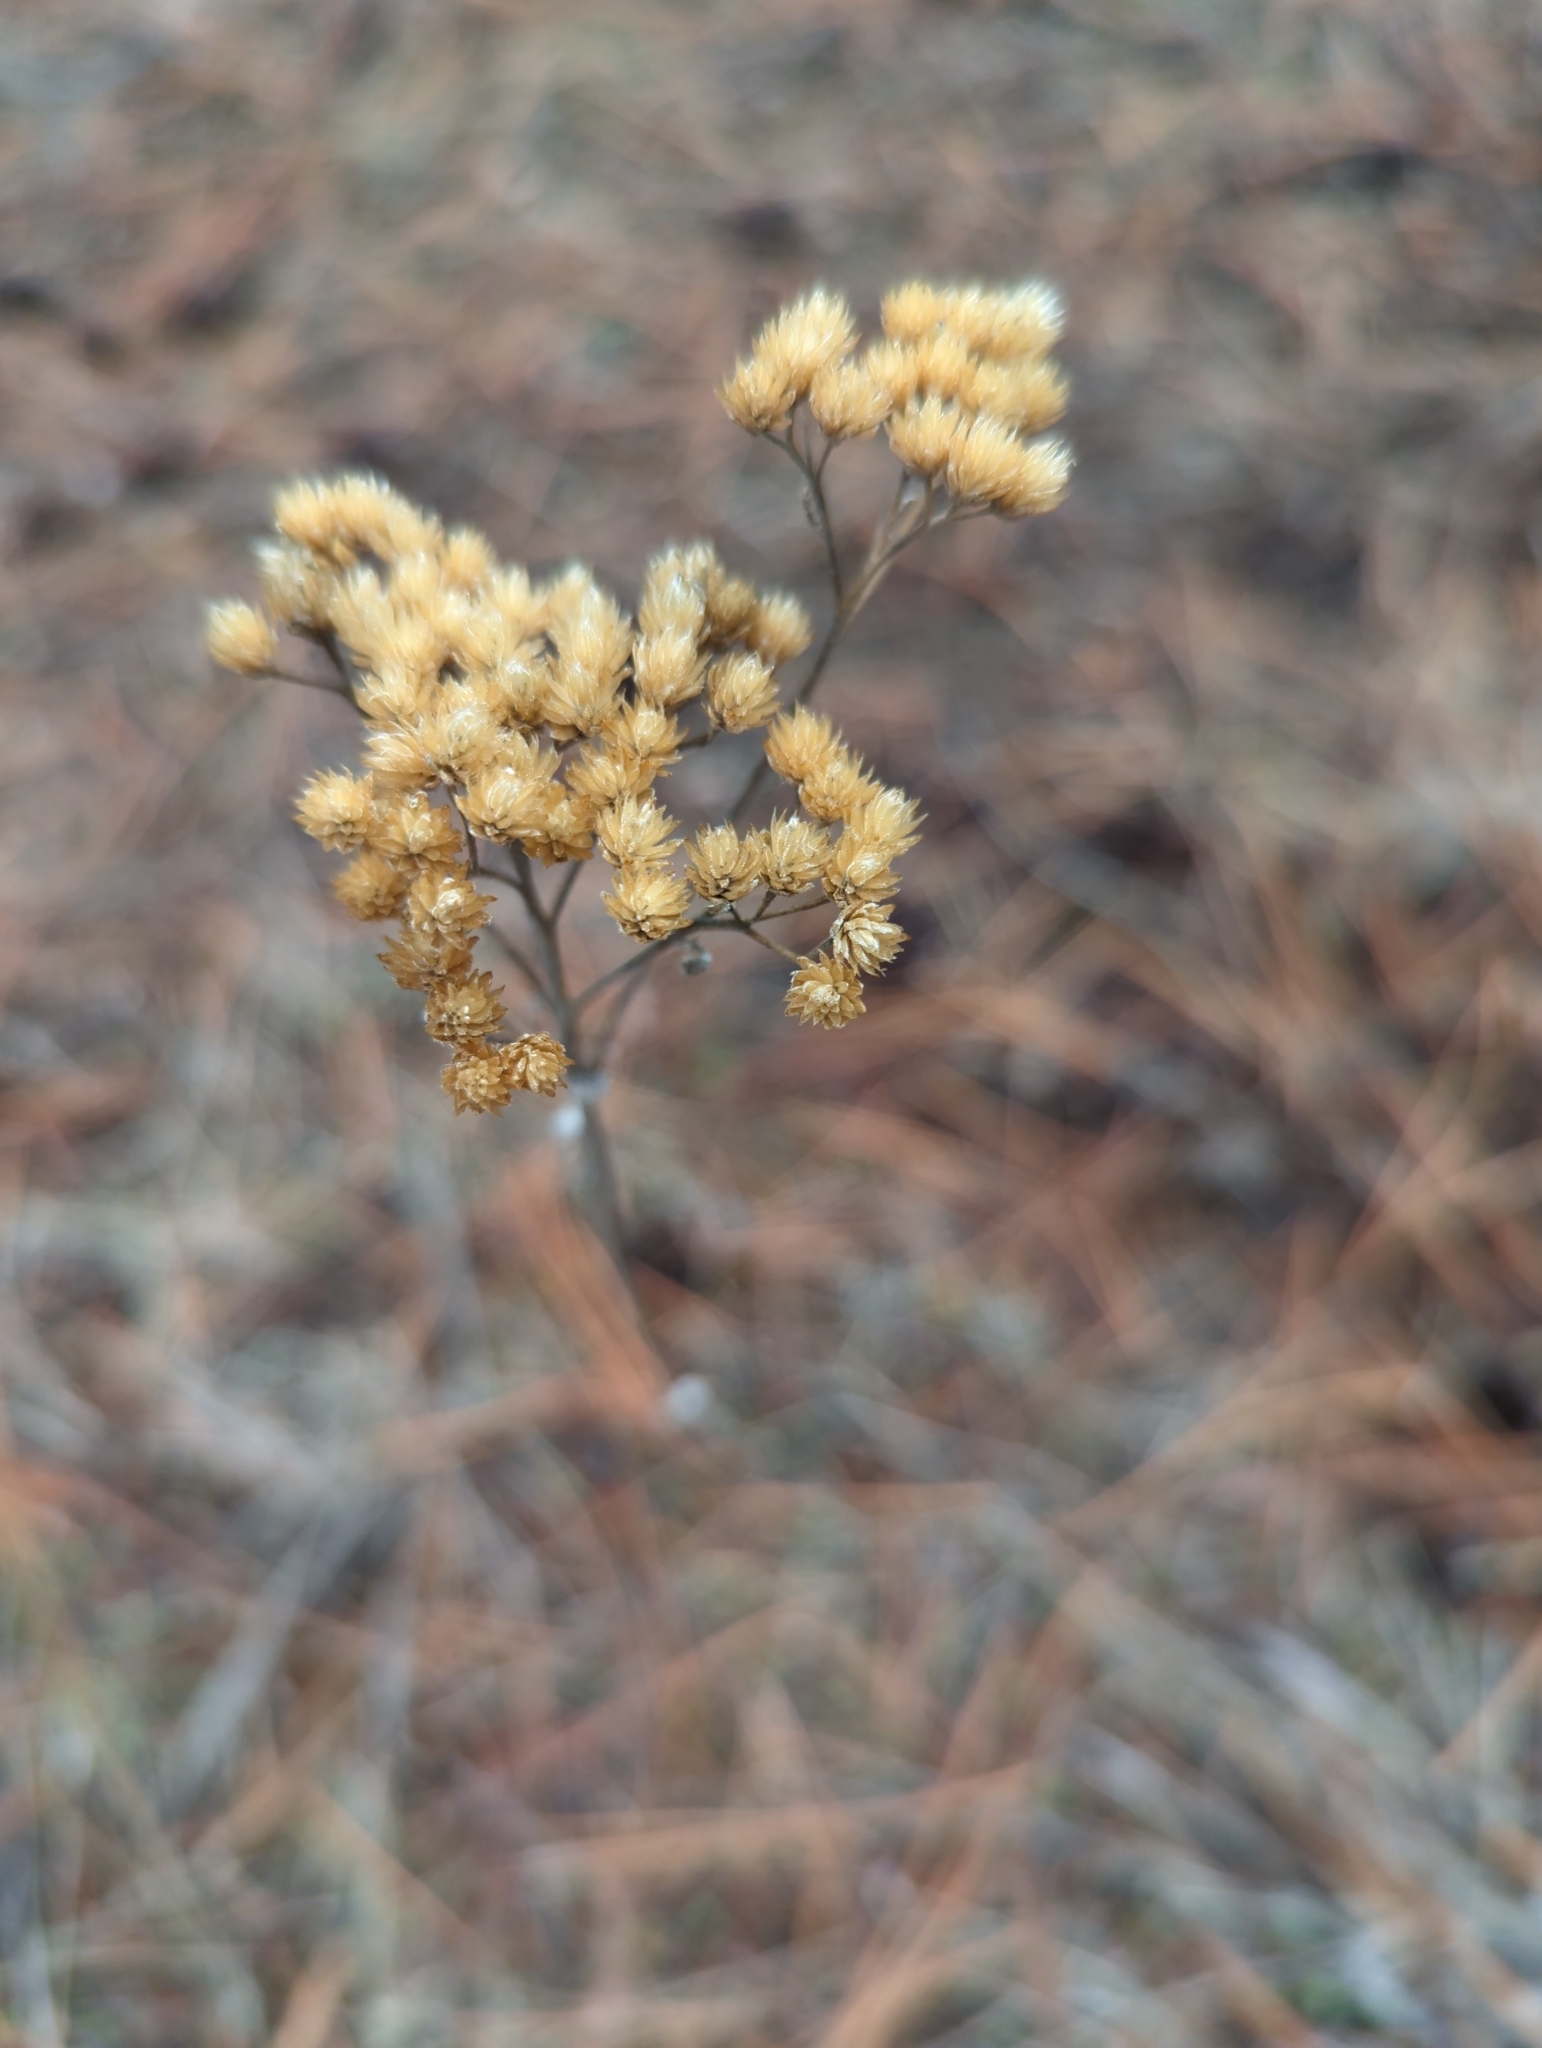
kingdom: Plantae
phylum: Tracheophyta
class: Magnoliopsida
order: Asterales
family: Asteraceae
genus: Achillea
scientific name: Achillea millefolium
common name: Yarrow
